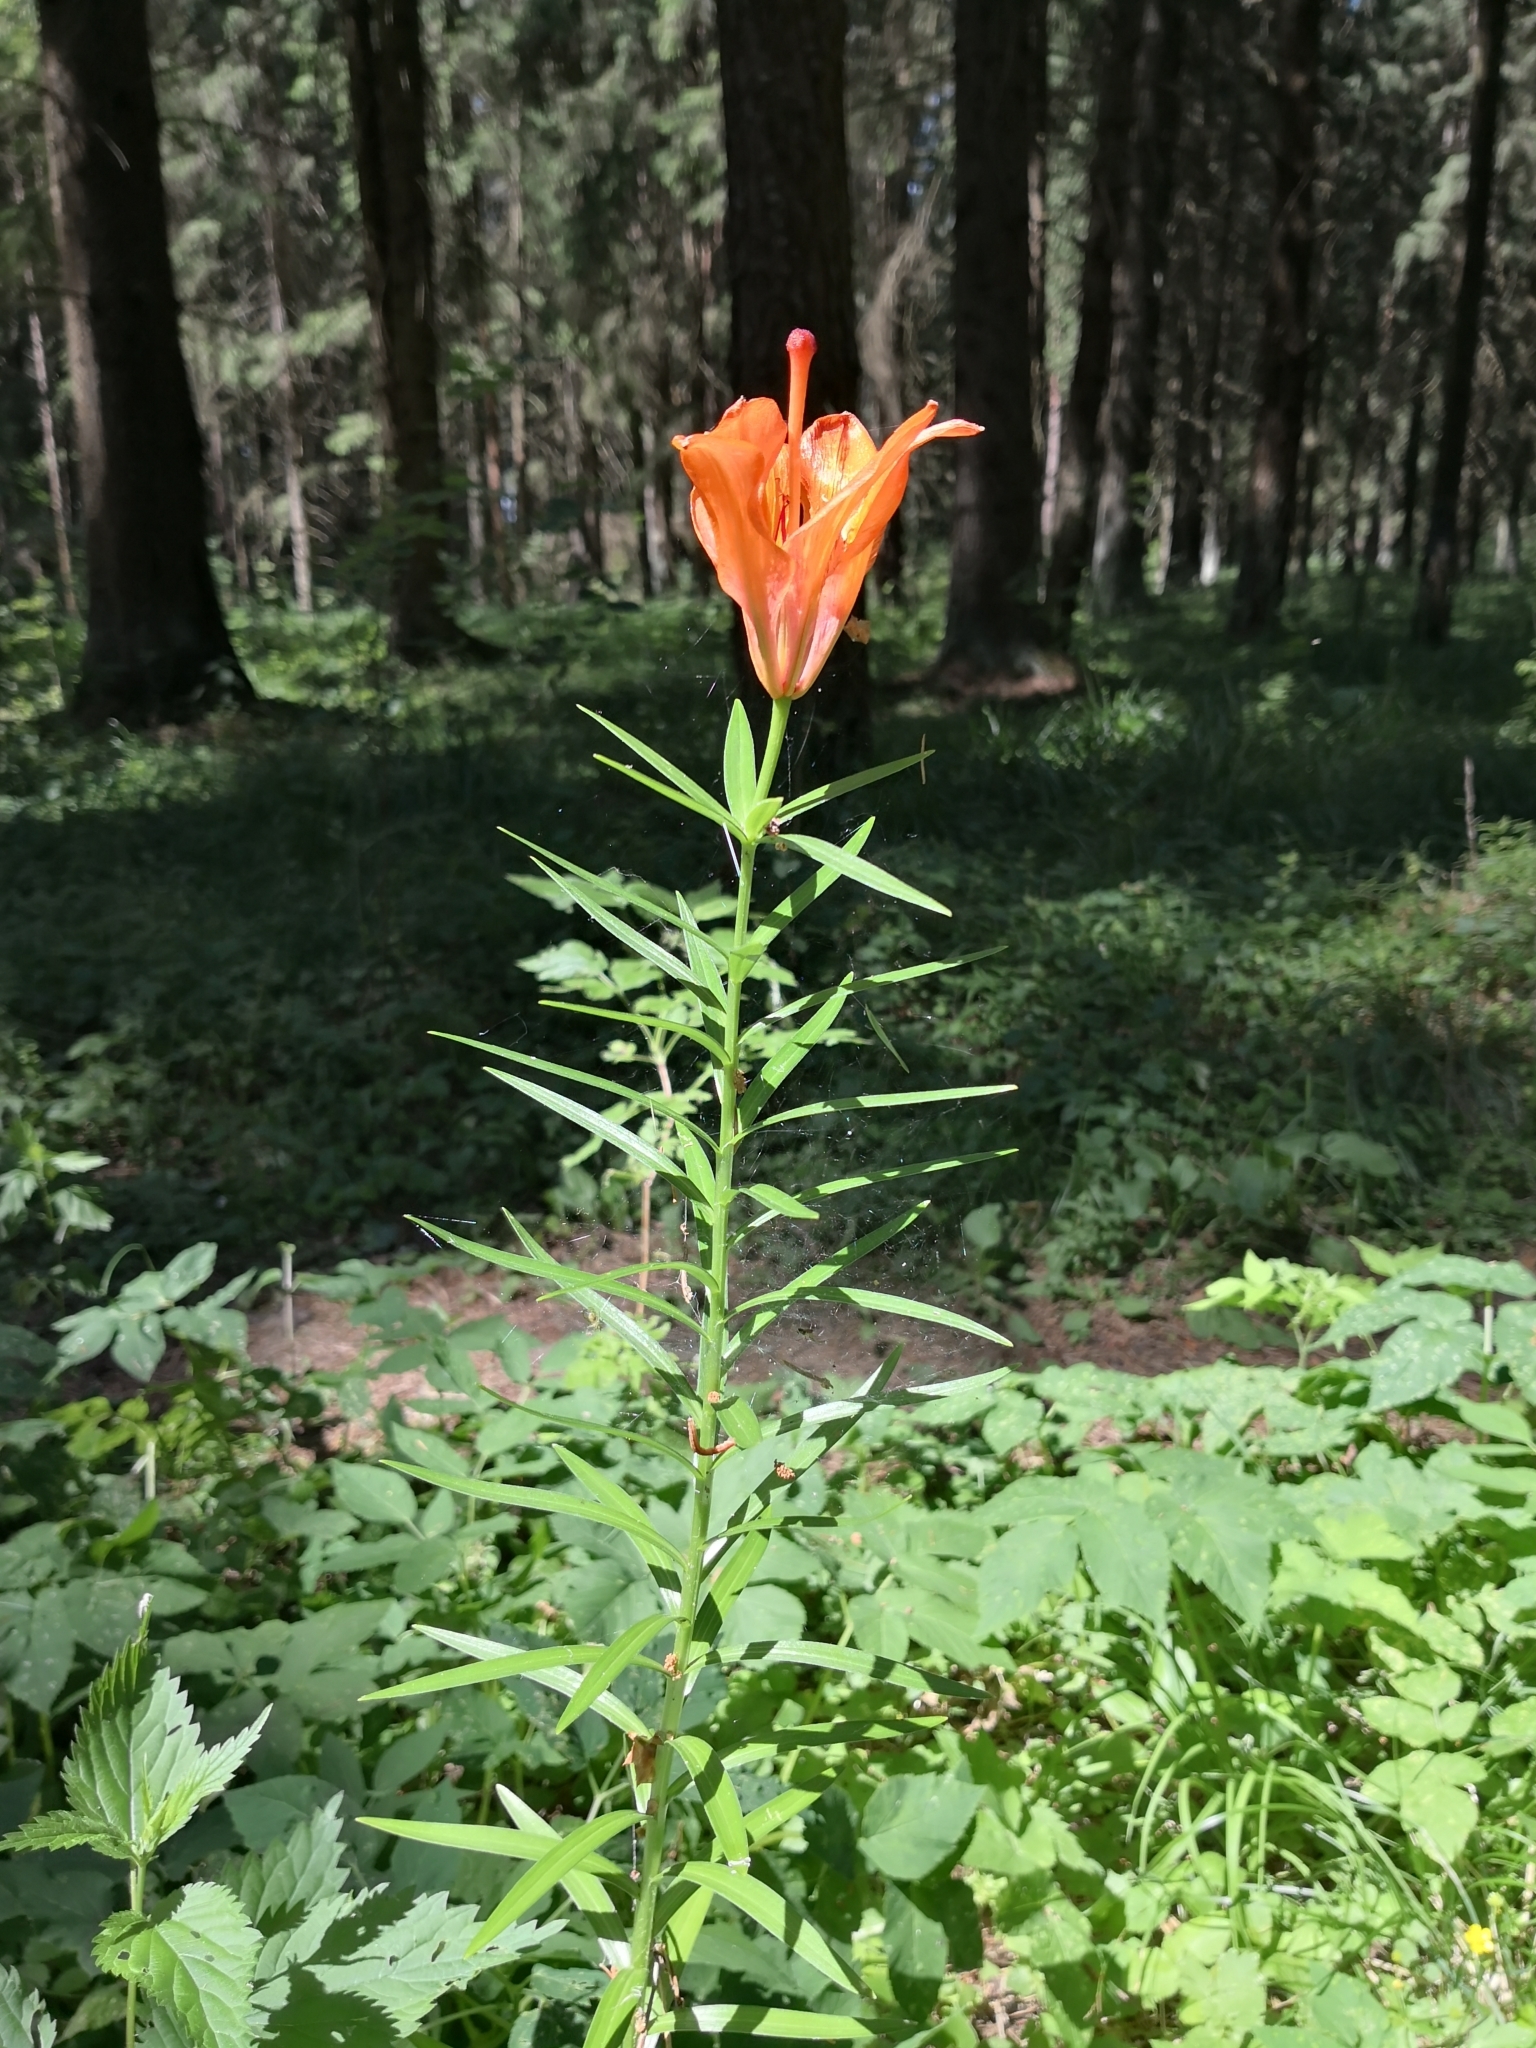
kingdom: Plantae
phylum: Tracheophyta
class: Liliopsida
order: Liliales
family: Liliaceae
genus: Lilium
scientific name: Lilium pensylvanicum
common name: Candlestick lily
